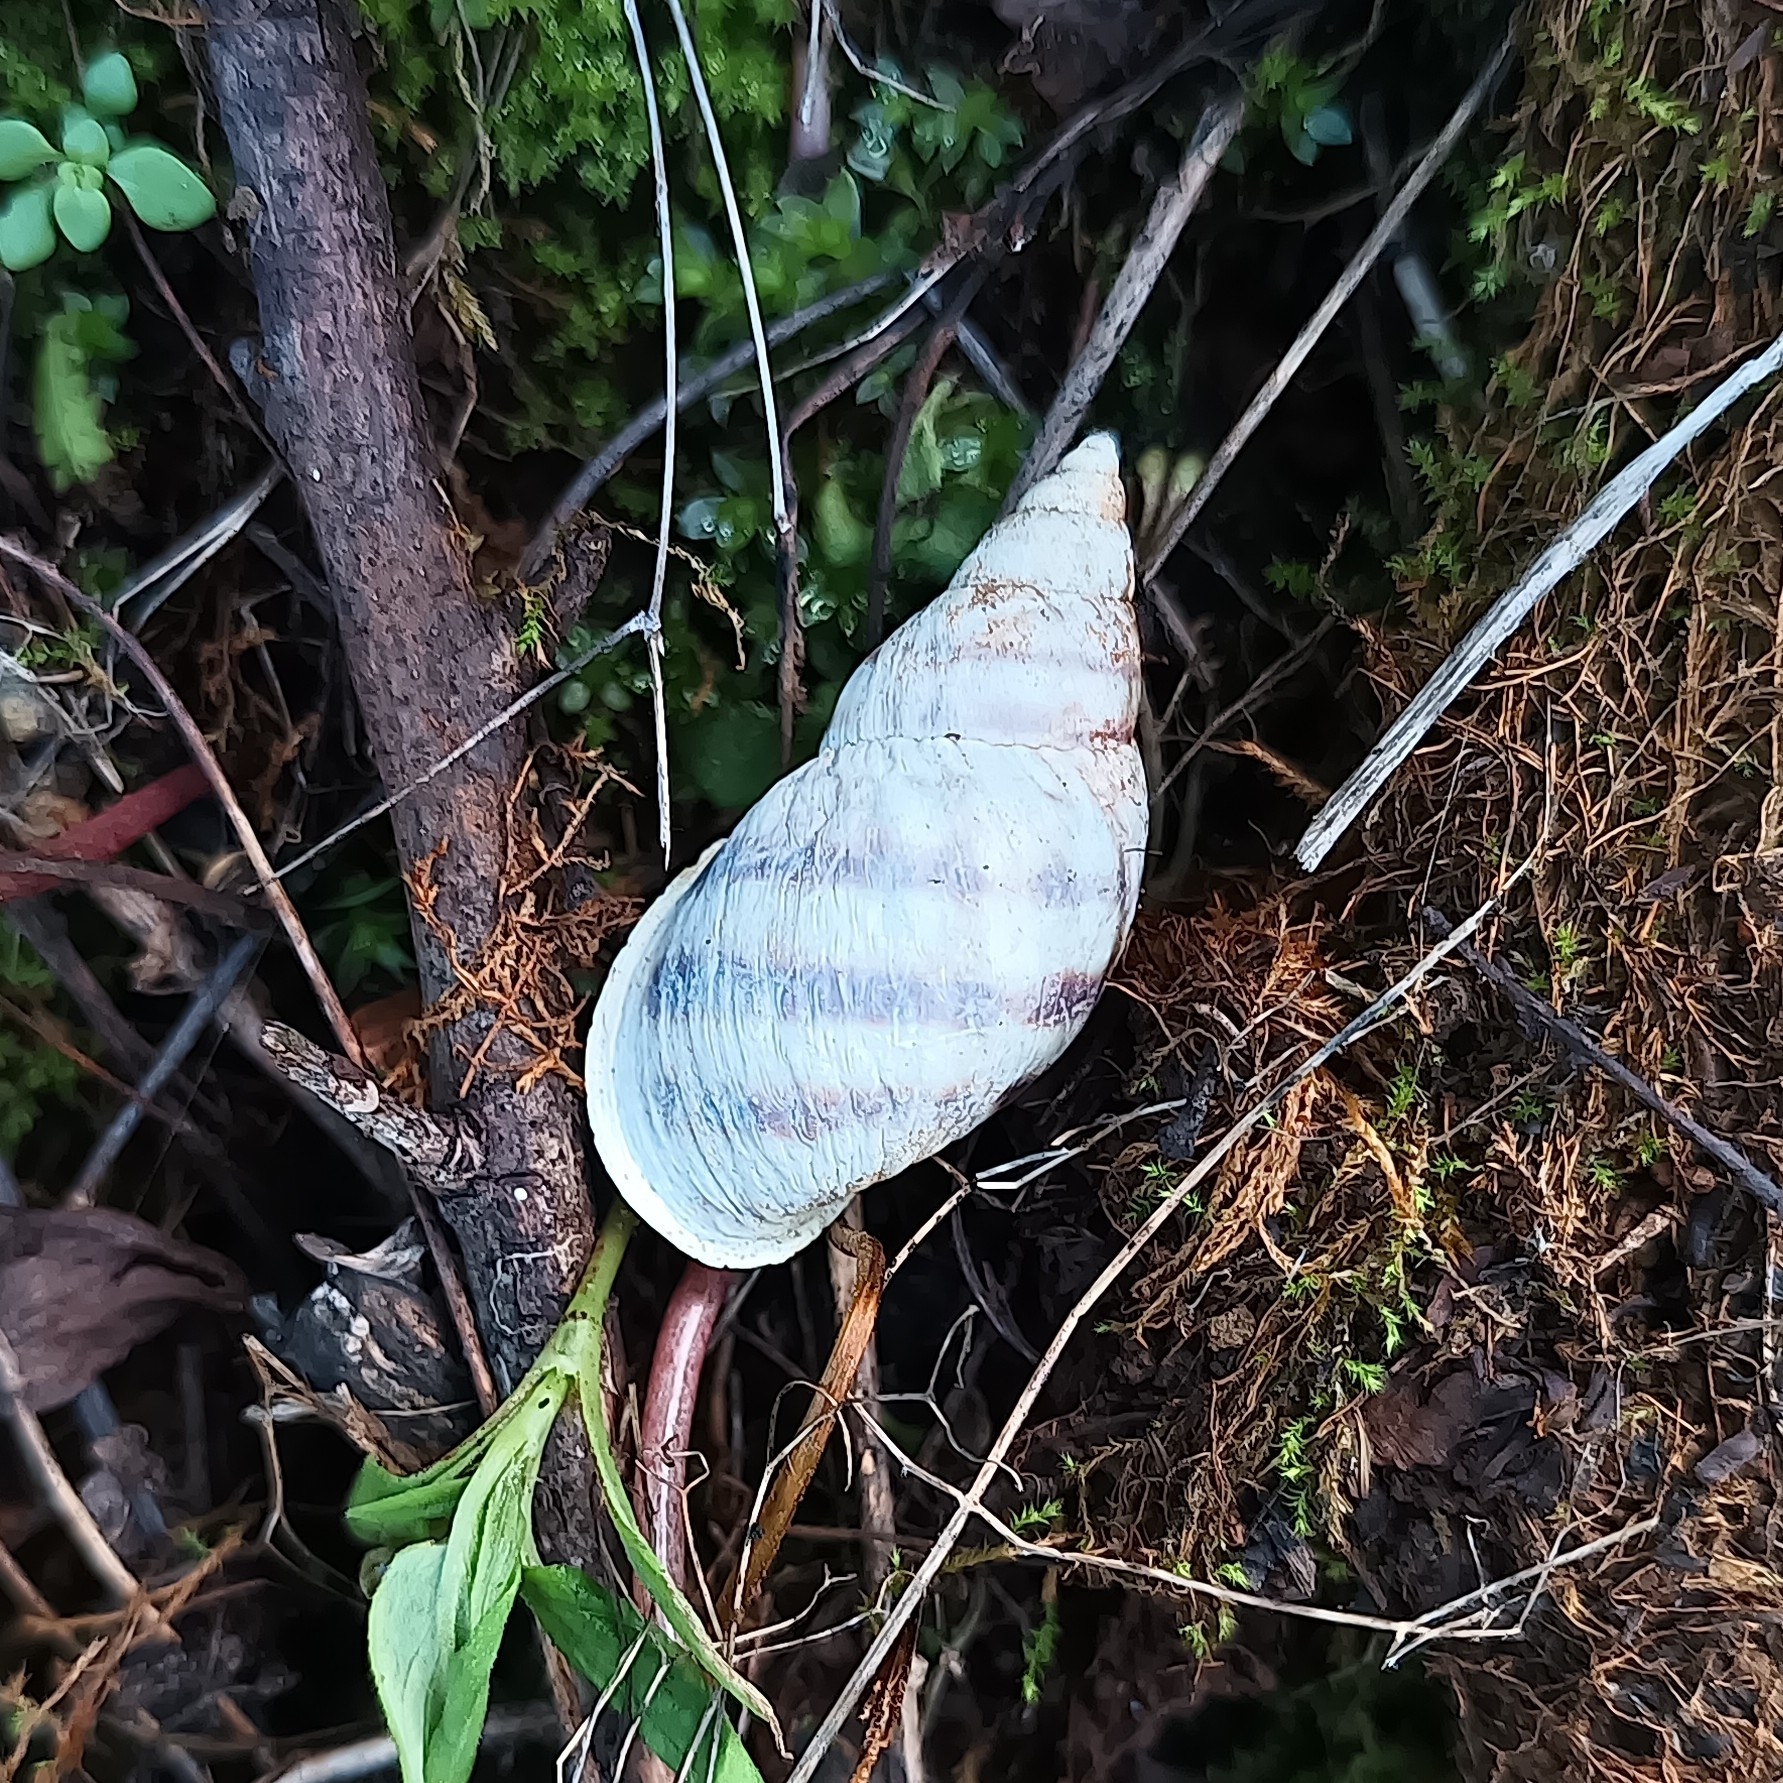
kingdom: Animalia
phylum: Mollusca
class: Gastropoda
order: Stylommatophora
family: Bulimulidae
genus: Drymaeus
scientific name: Drymaeus
